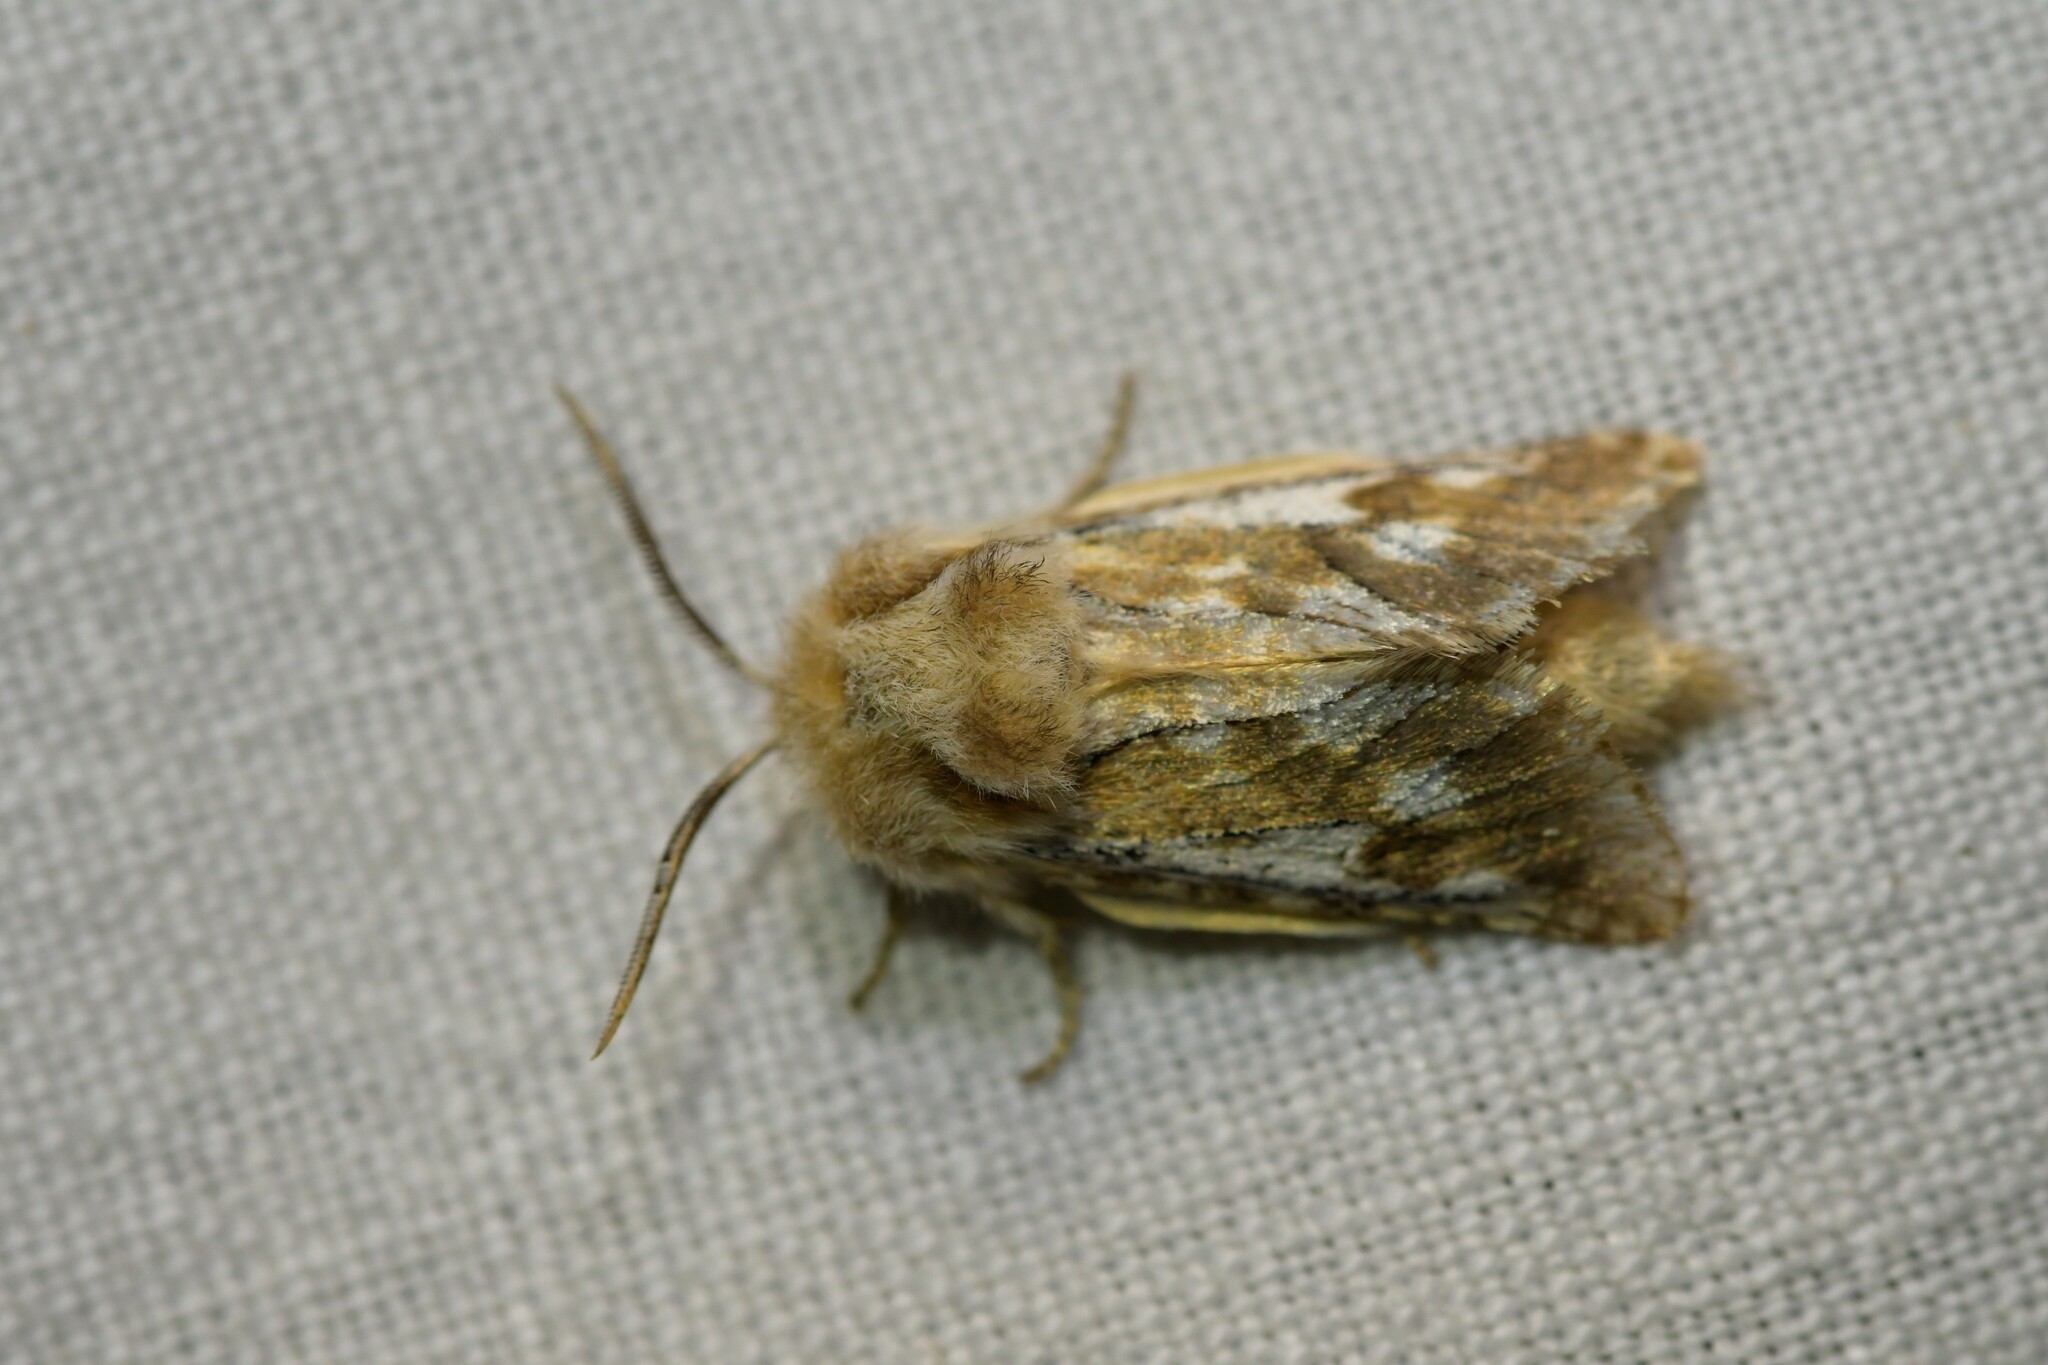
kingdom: Animalia
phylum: Arthropoda
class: Insecta
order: Lepidoptera
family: Cossidae
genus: Dyspessa
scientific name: Dyspessa ulula
